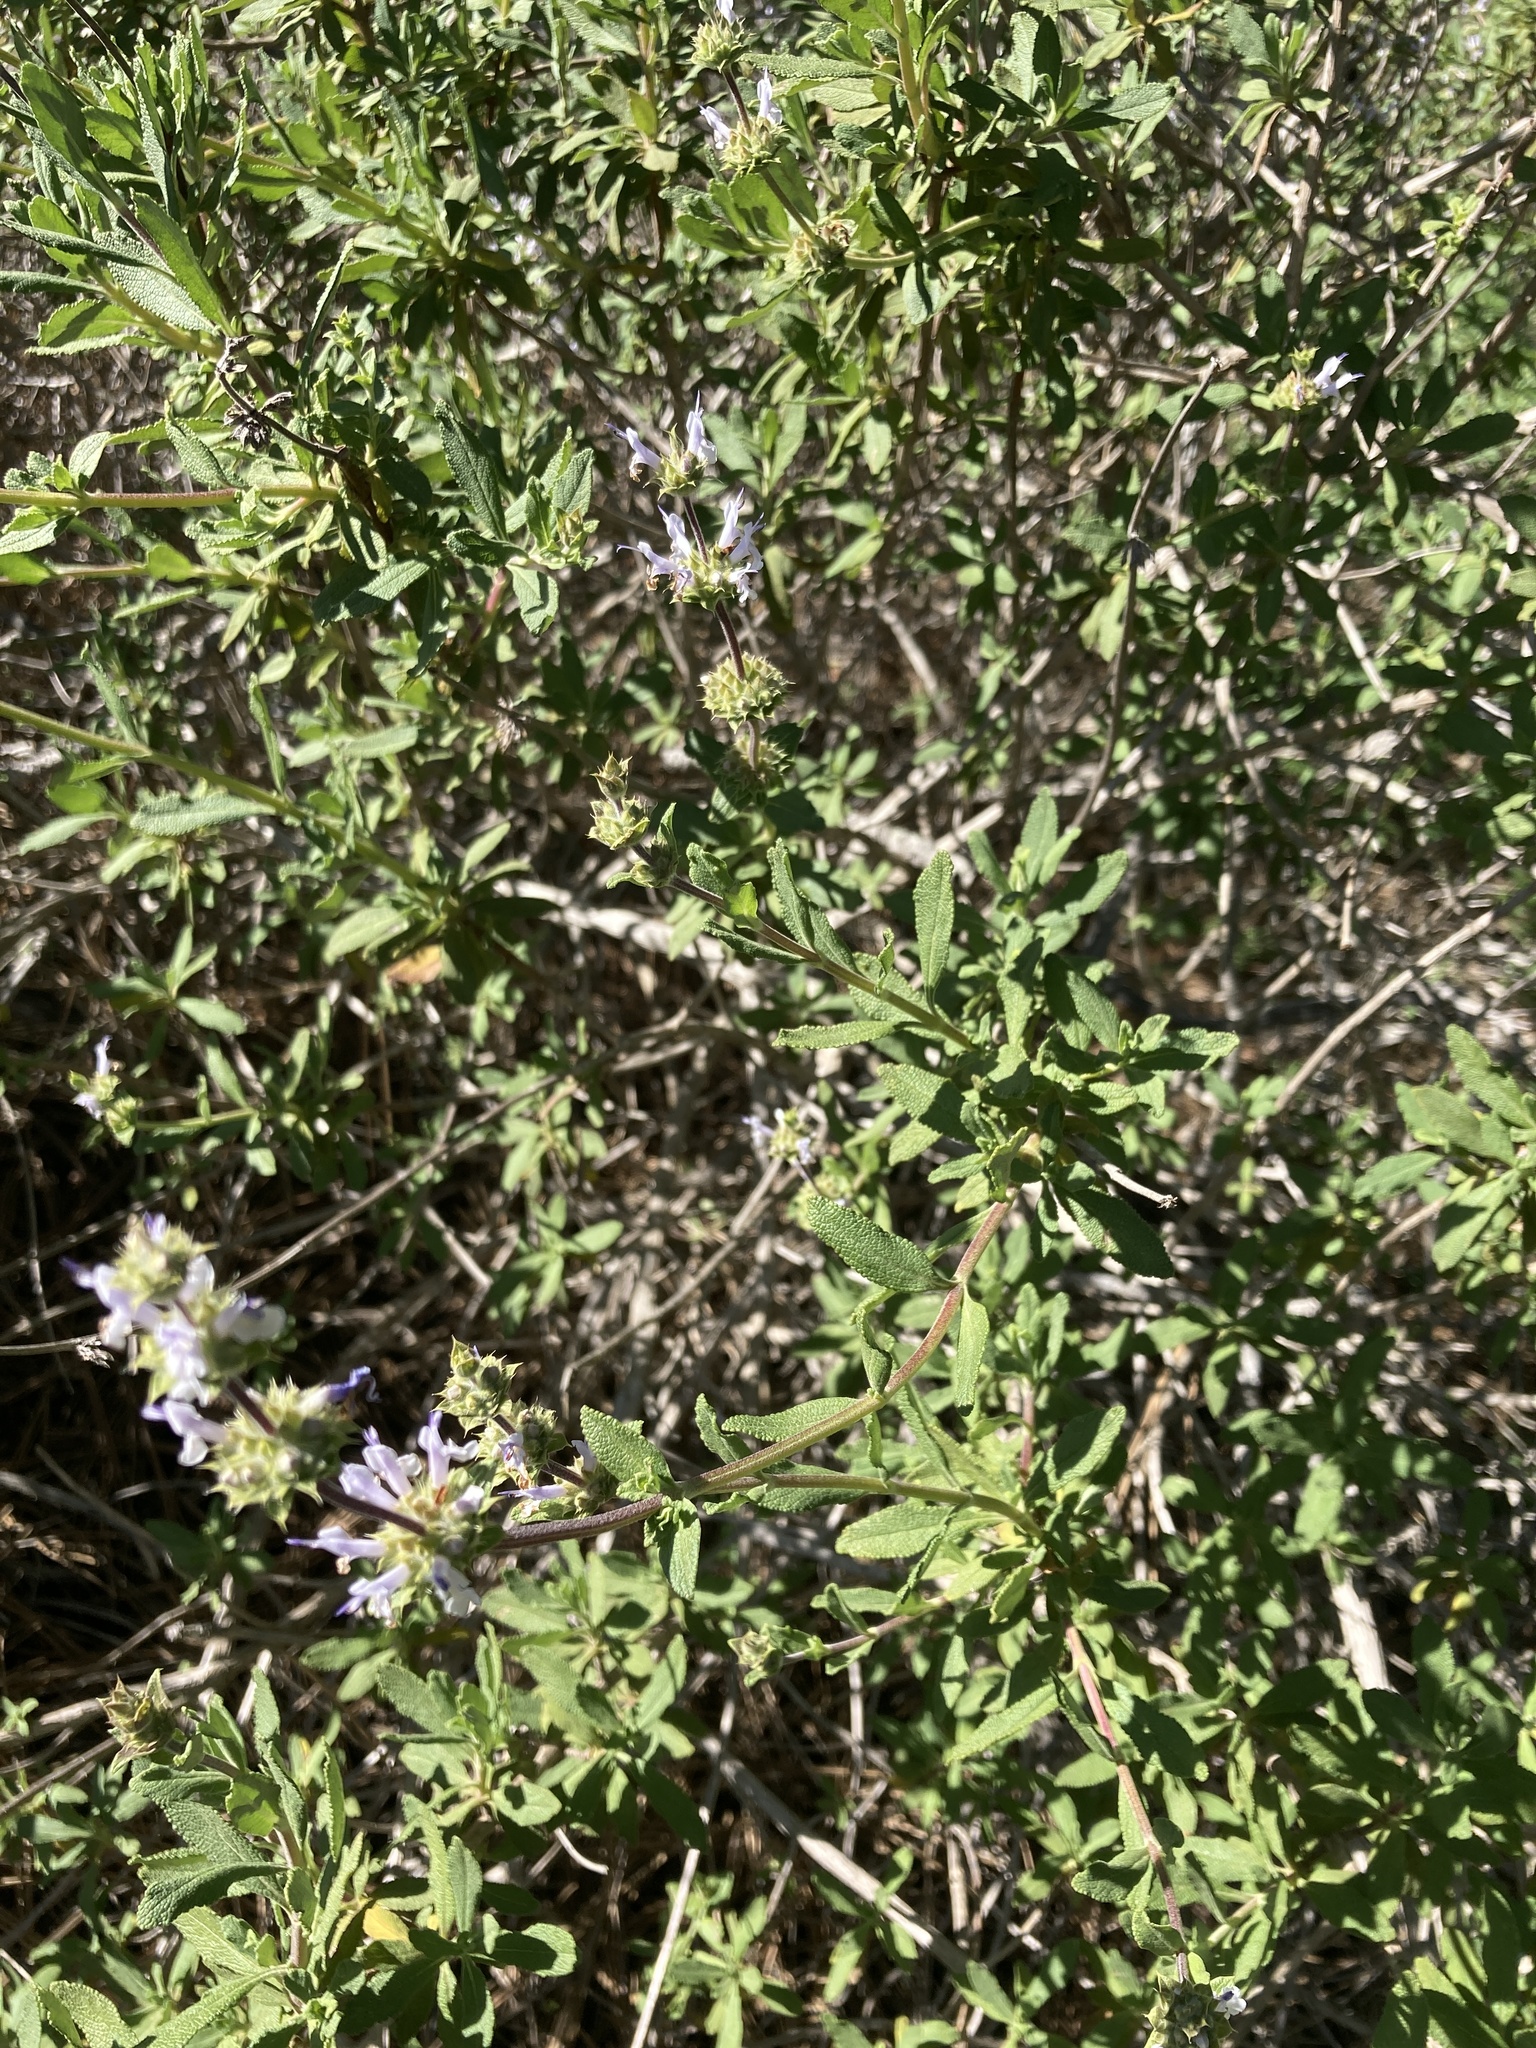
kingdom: Plantae
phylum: Tracheophyta
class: Magnoliopsida
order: Lamiales
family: Lamiaceae
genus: Salvia
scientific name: Salvia mellifera
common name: Black sage
